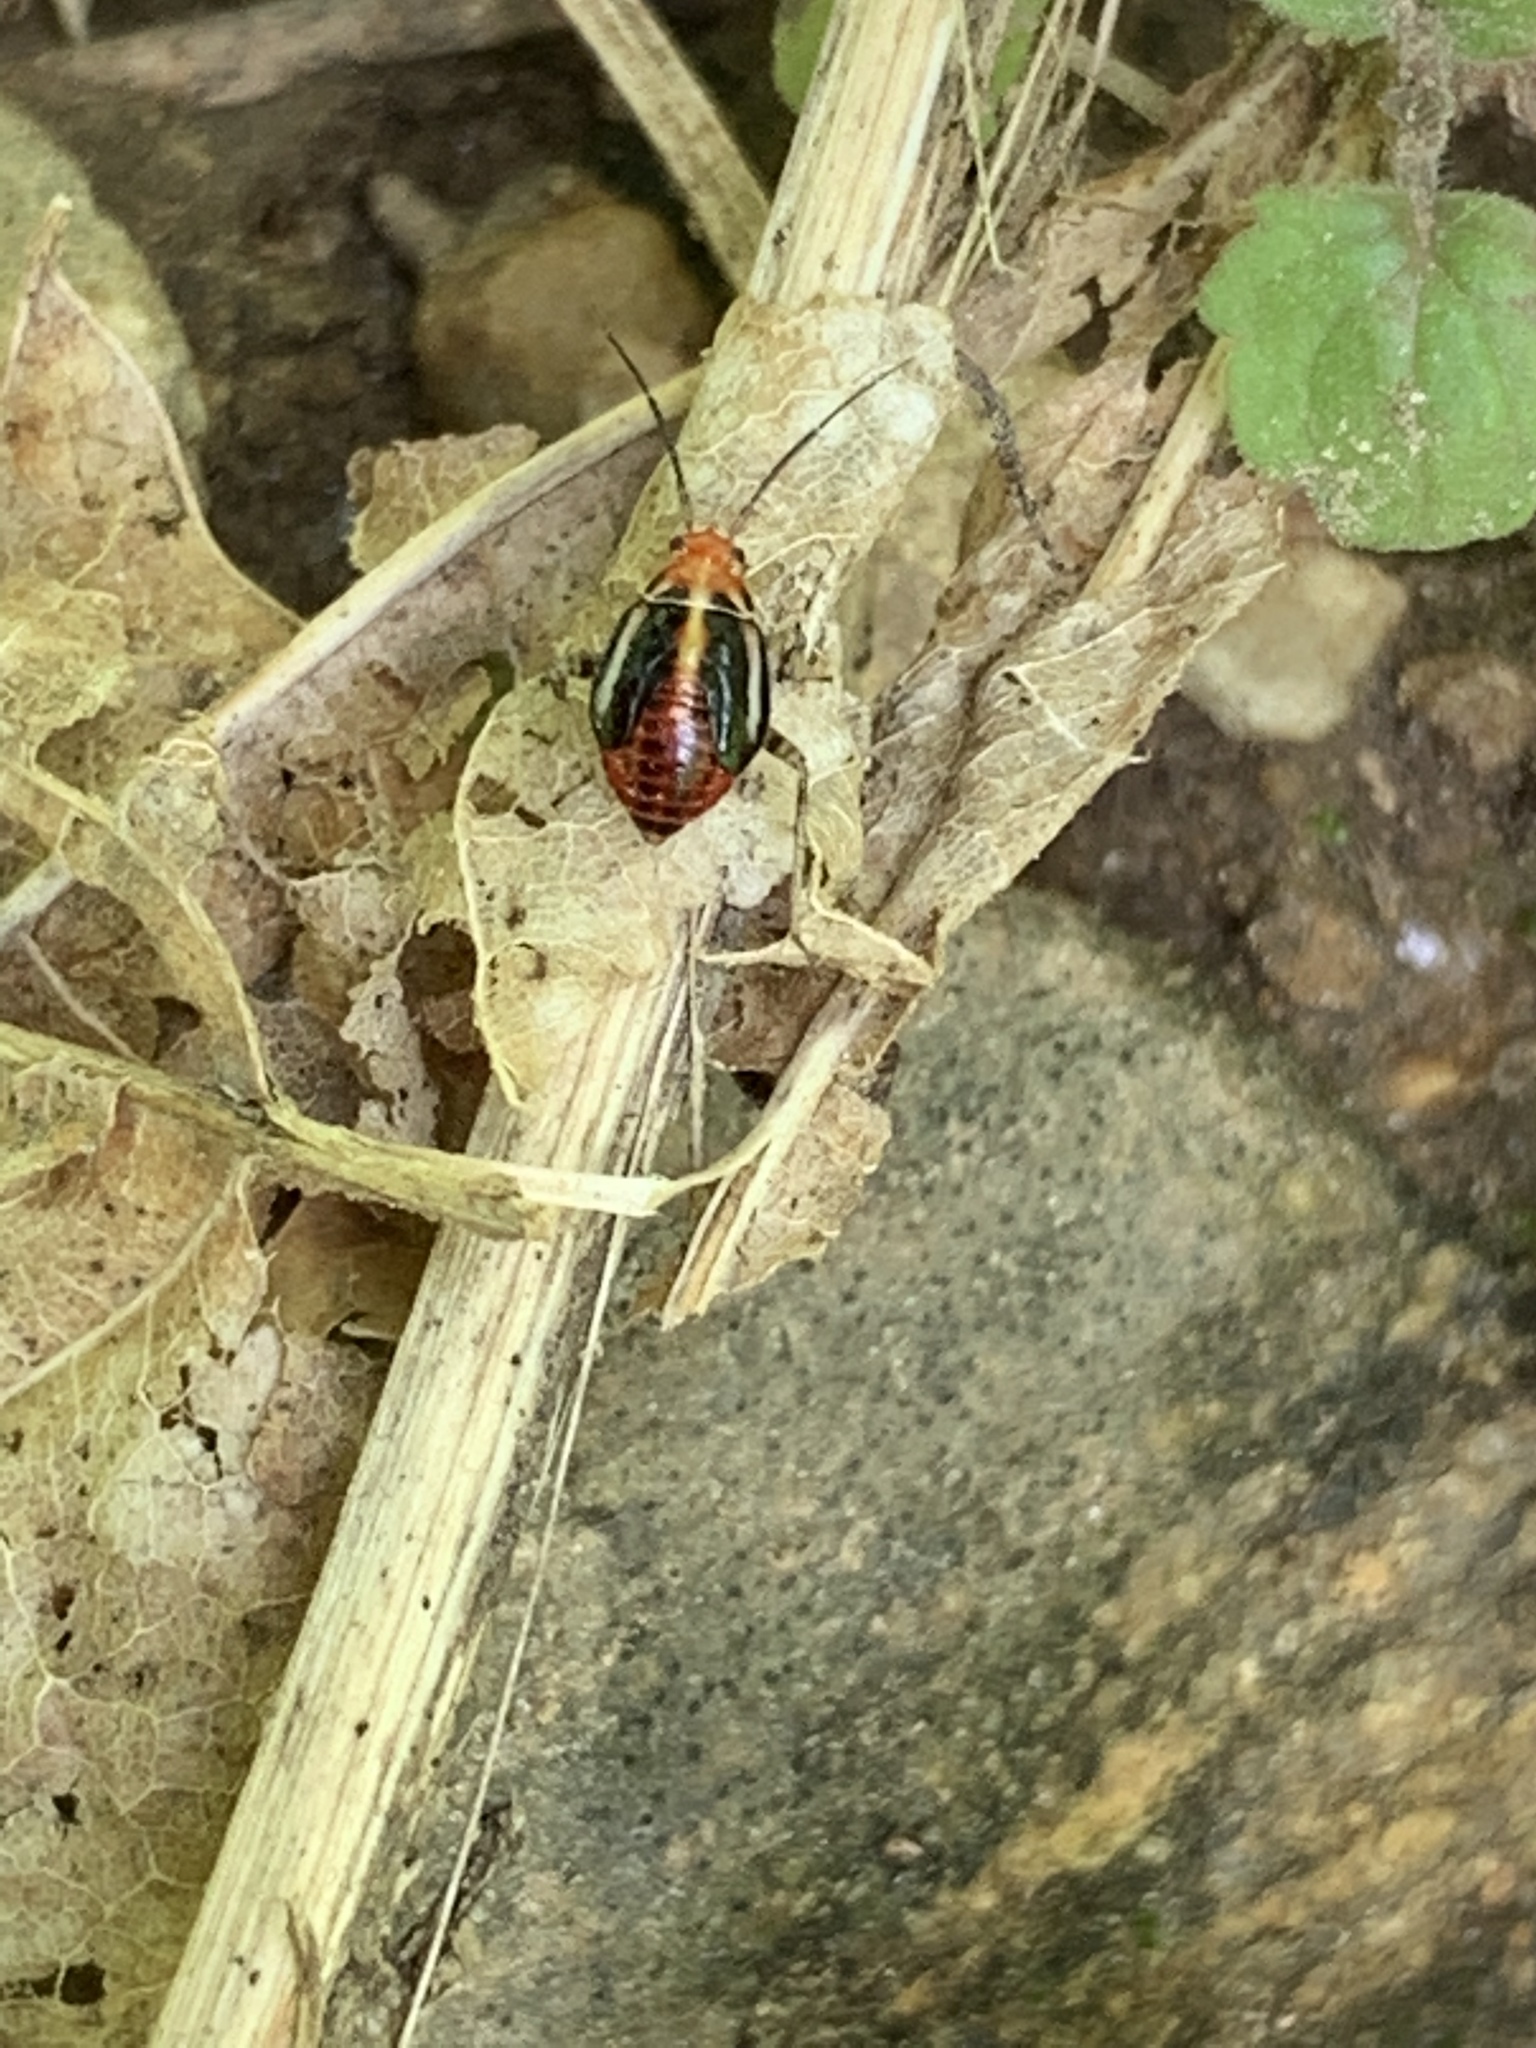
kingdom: Animalia
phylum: Arthropoda
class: Insecta
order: Hemiptera
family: Miridae
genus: Poecilocapsus
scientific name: Poecilocapsus lineatus
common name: Four-lined plant bug
